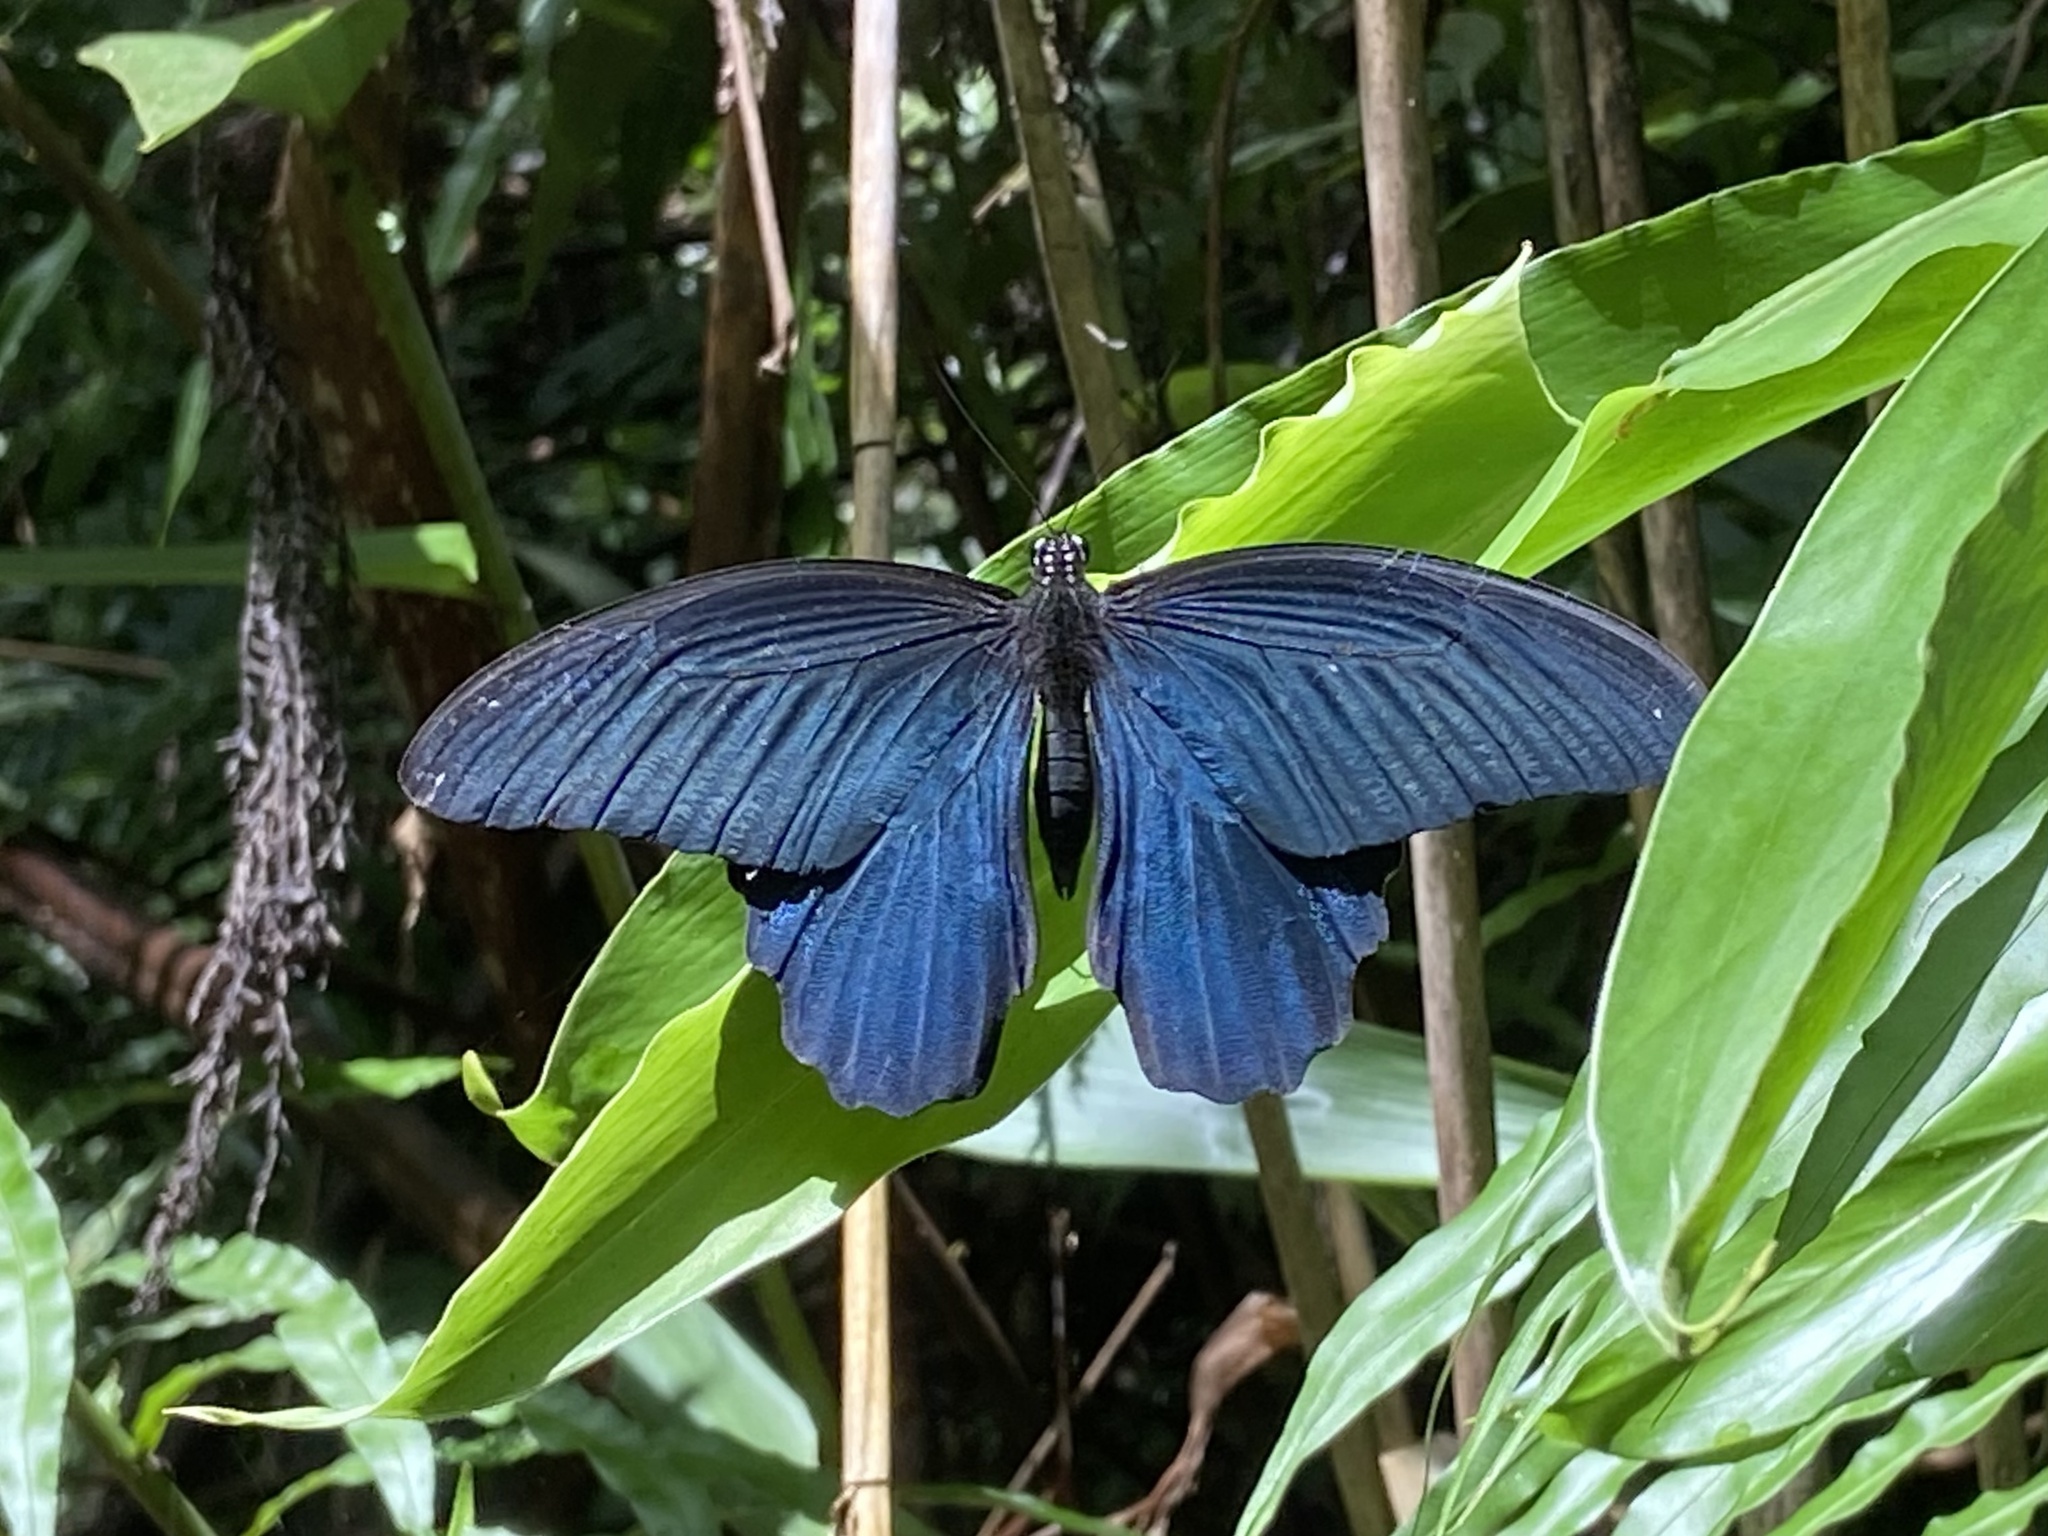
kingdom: Animalia
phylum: Arthropoda
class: Insecta
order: Lepidoptera
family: Papilionidae
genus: Papilio
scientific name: Papilio protenor
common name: Spangle
